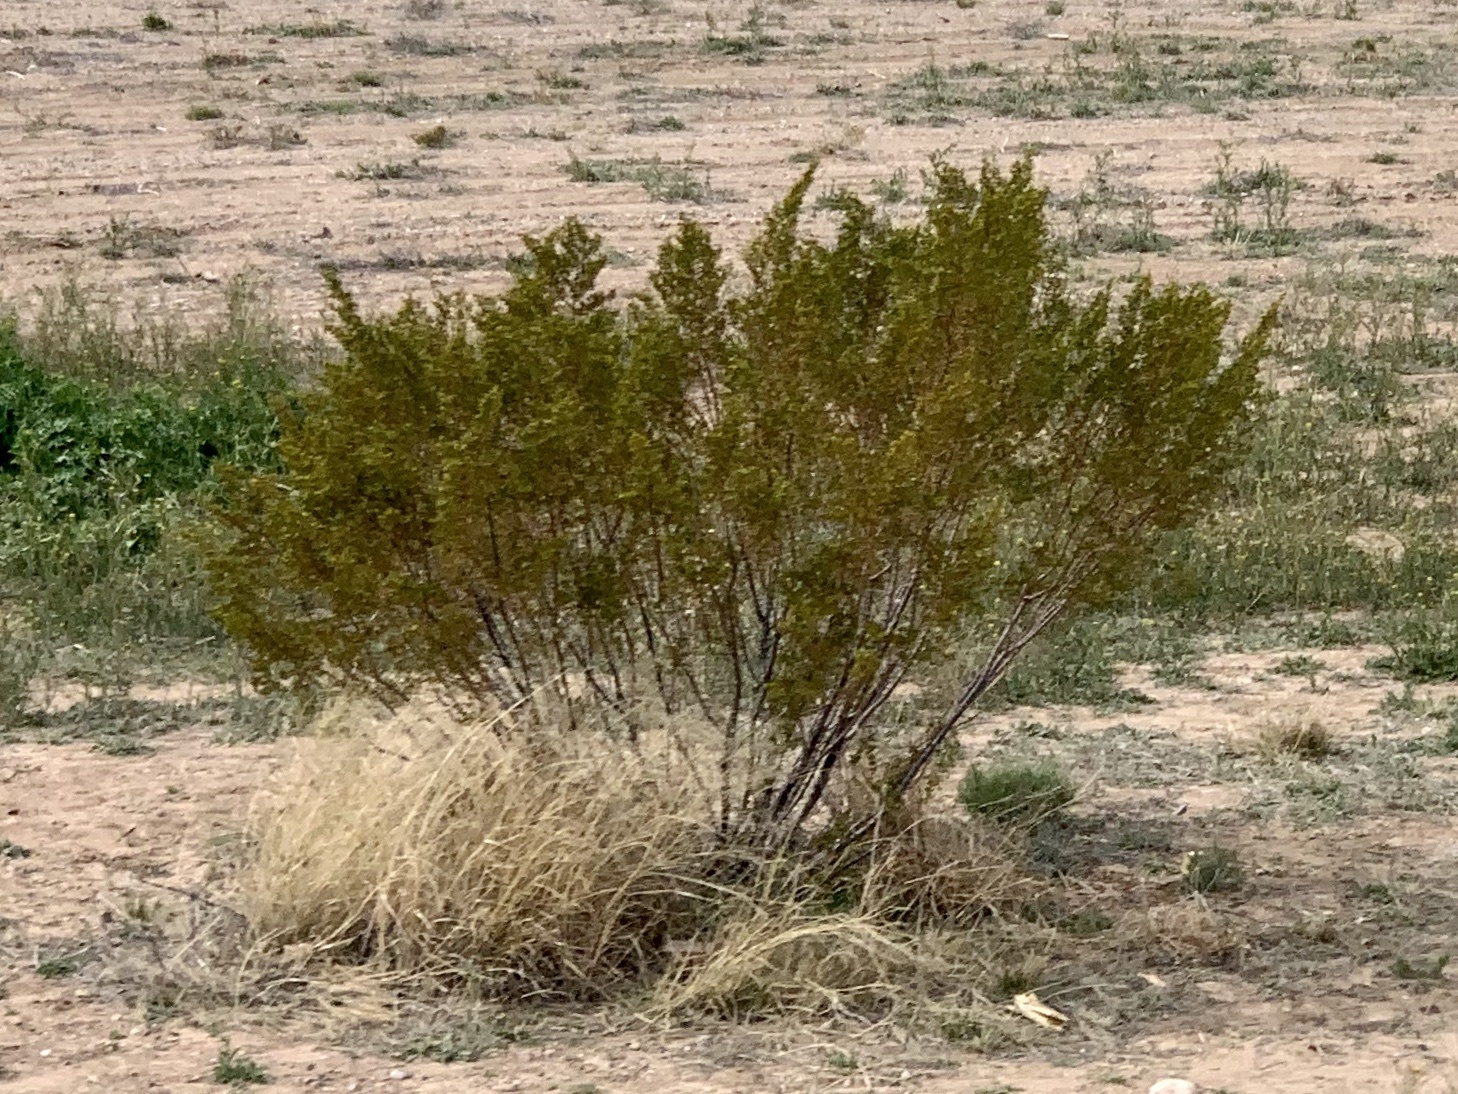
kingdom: Plantae
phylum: Tracheophyta
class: Magnoliopsida
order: Zygophyllales
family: Zygophyllaceae
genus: Larrea
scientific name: Larrea tridentata
